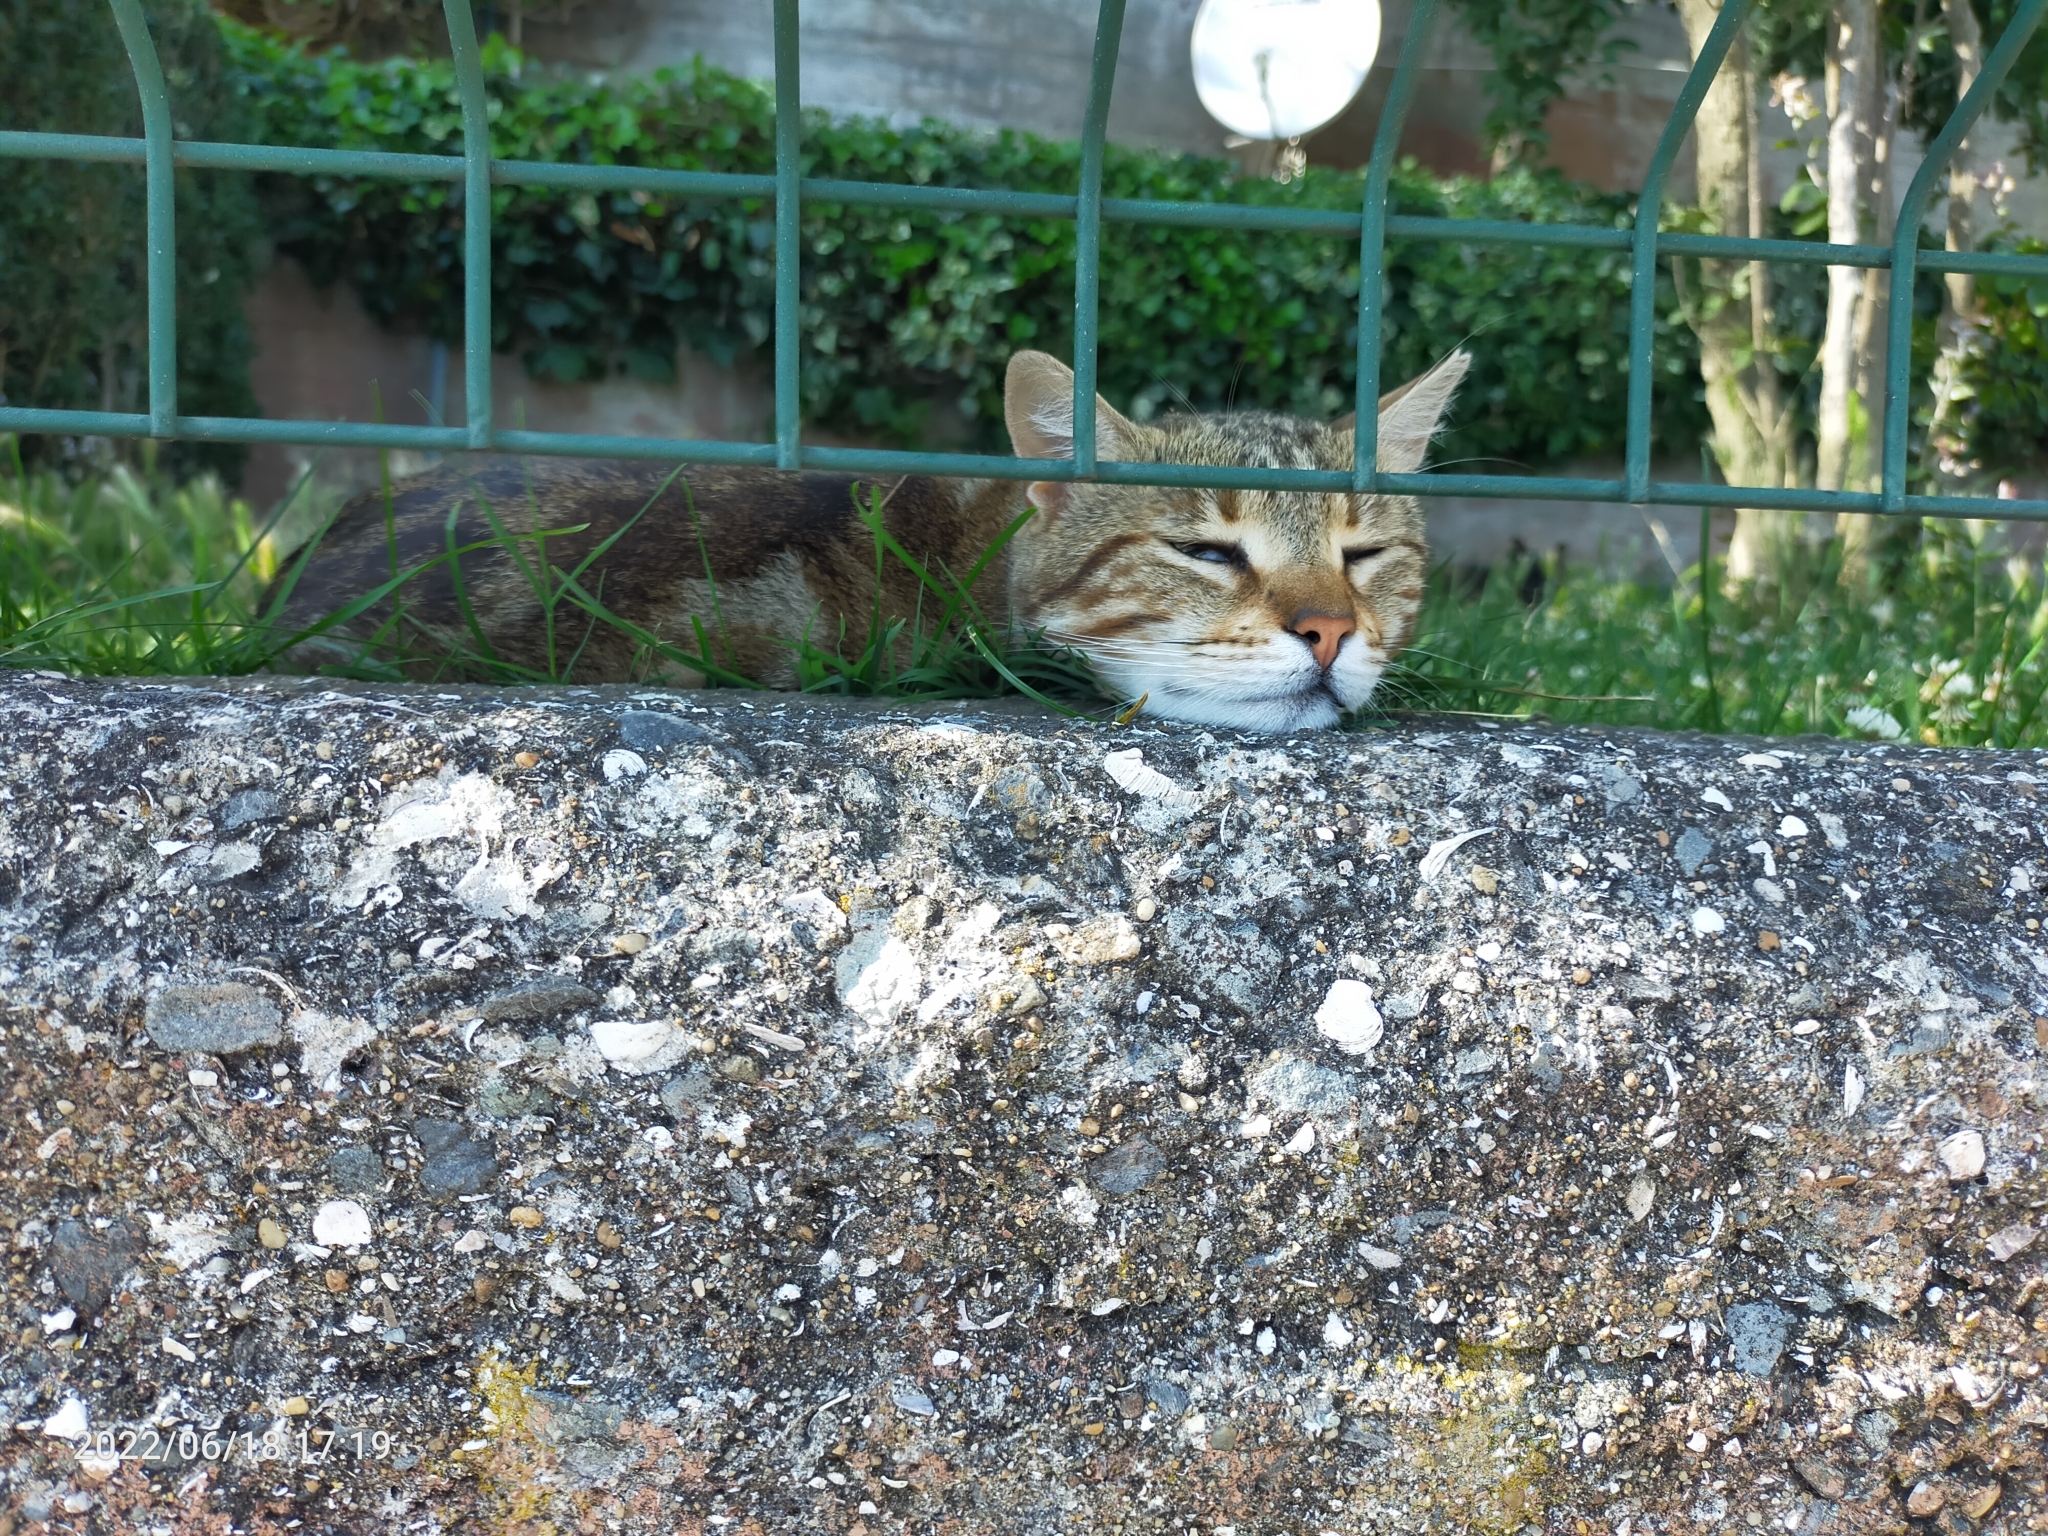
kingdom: Animalia
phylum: Chordata
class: Mammalia
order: Carnivora
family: Felidae
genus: Felis
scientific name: Felis catus
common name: Domestic cat
